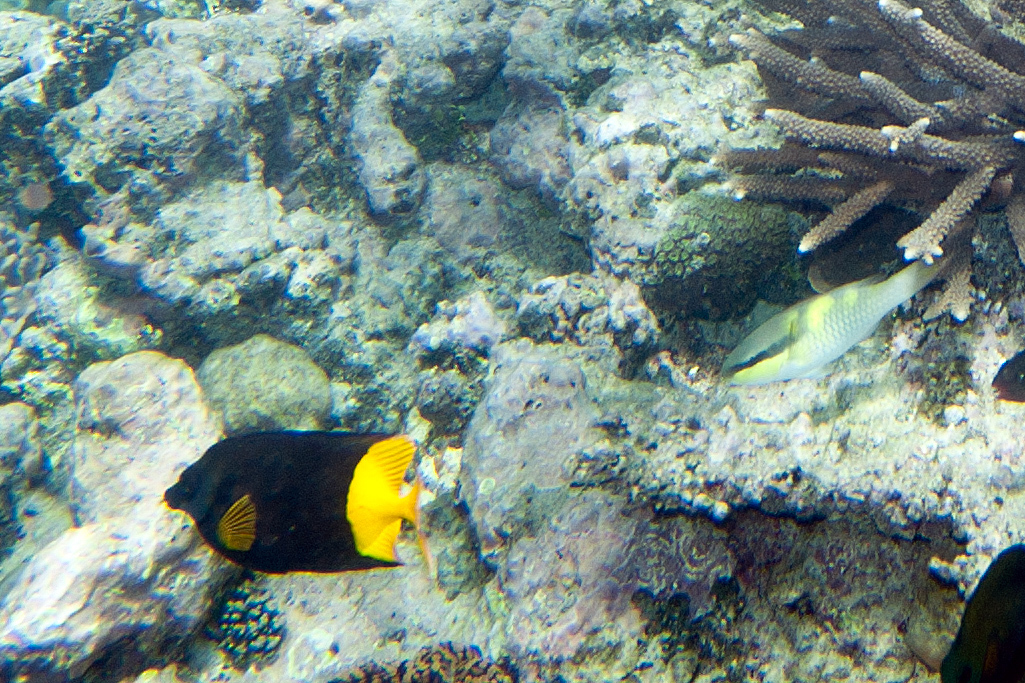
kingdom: Animalia
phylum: Chordata
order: Perciformes
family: Scaridae
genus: Scarus
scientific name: Scarus oviceps
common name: Blue parrotfish
